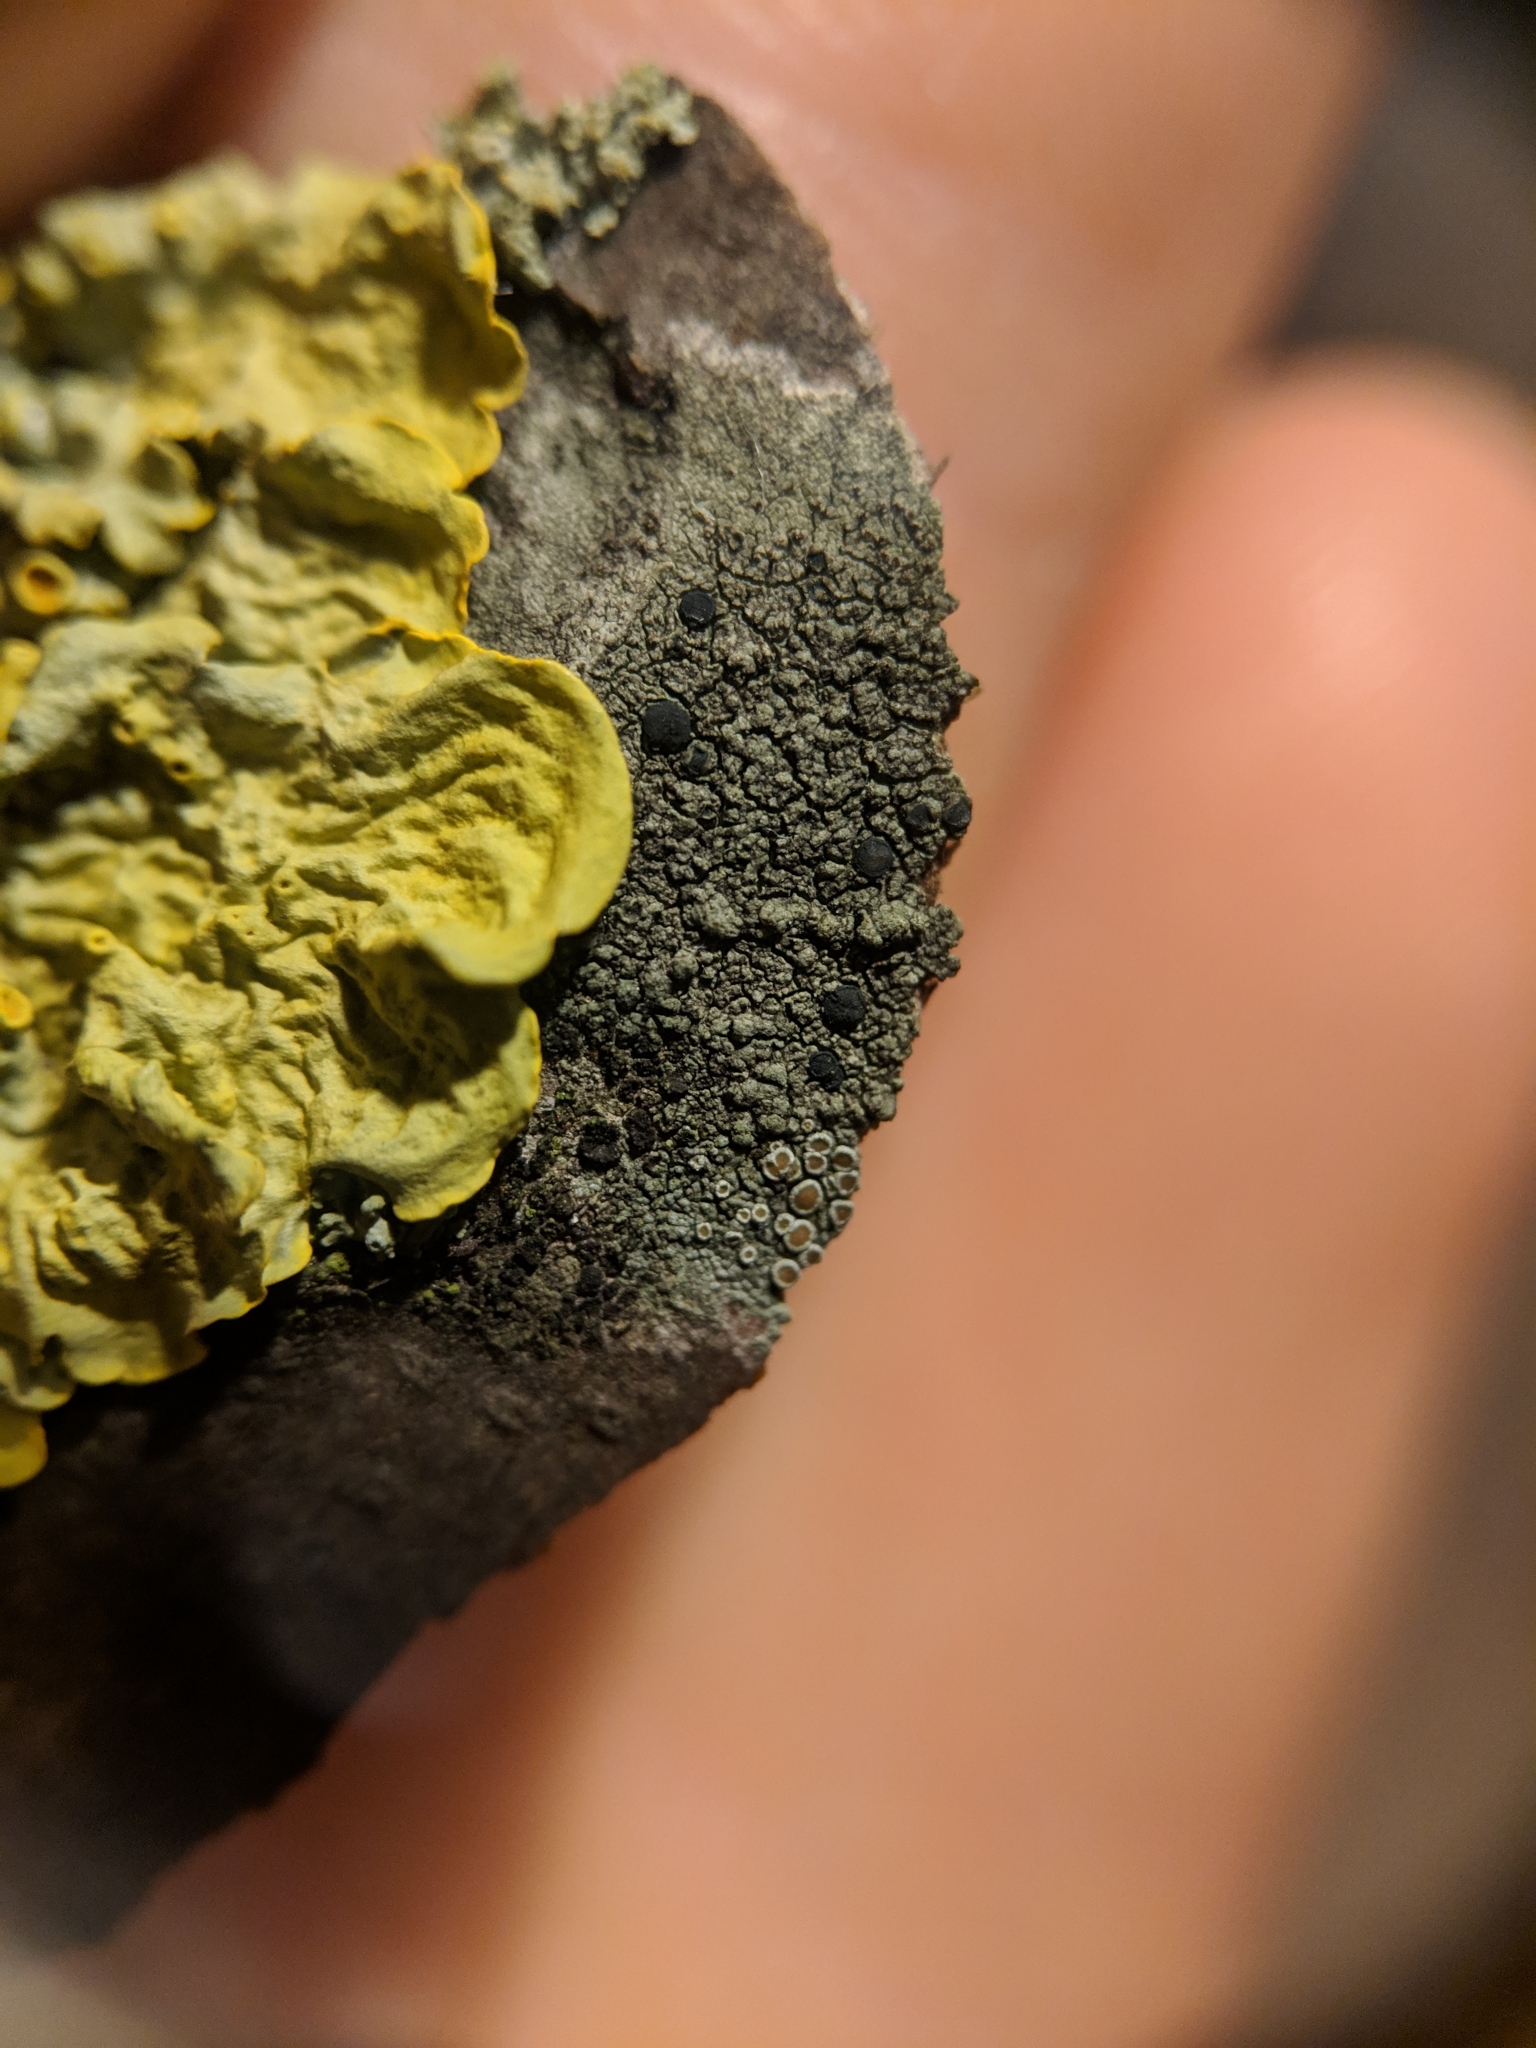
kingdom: Fungi
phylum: Ascomycota
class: Lecanoromycetes
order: Lecanorales
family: Lecanoraceae
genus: Lecidella
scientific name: Lecidella elaeochroma
